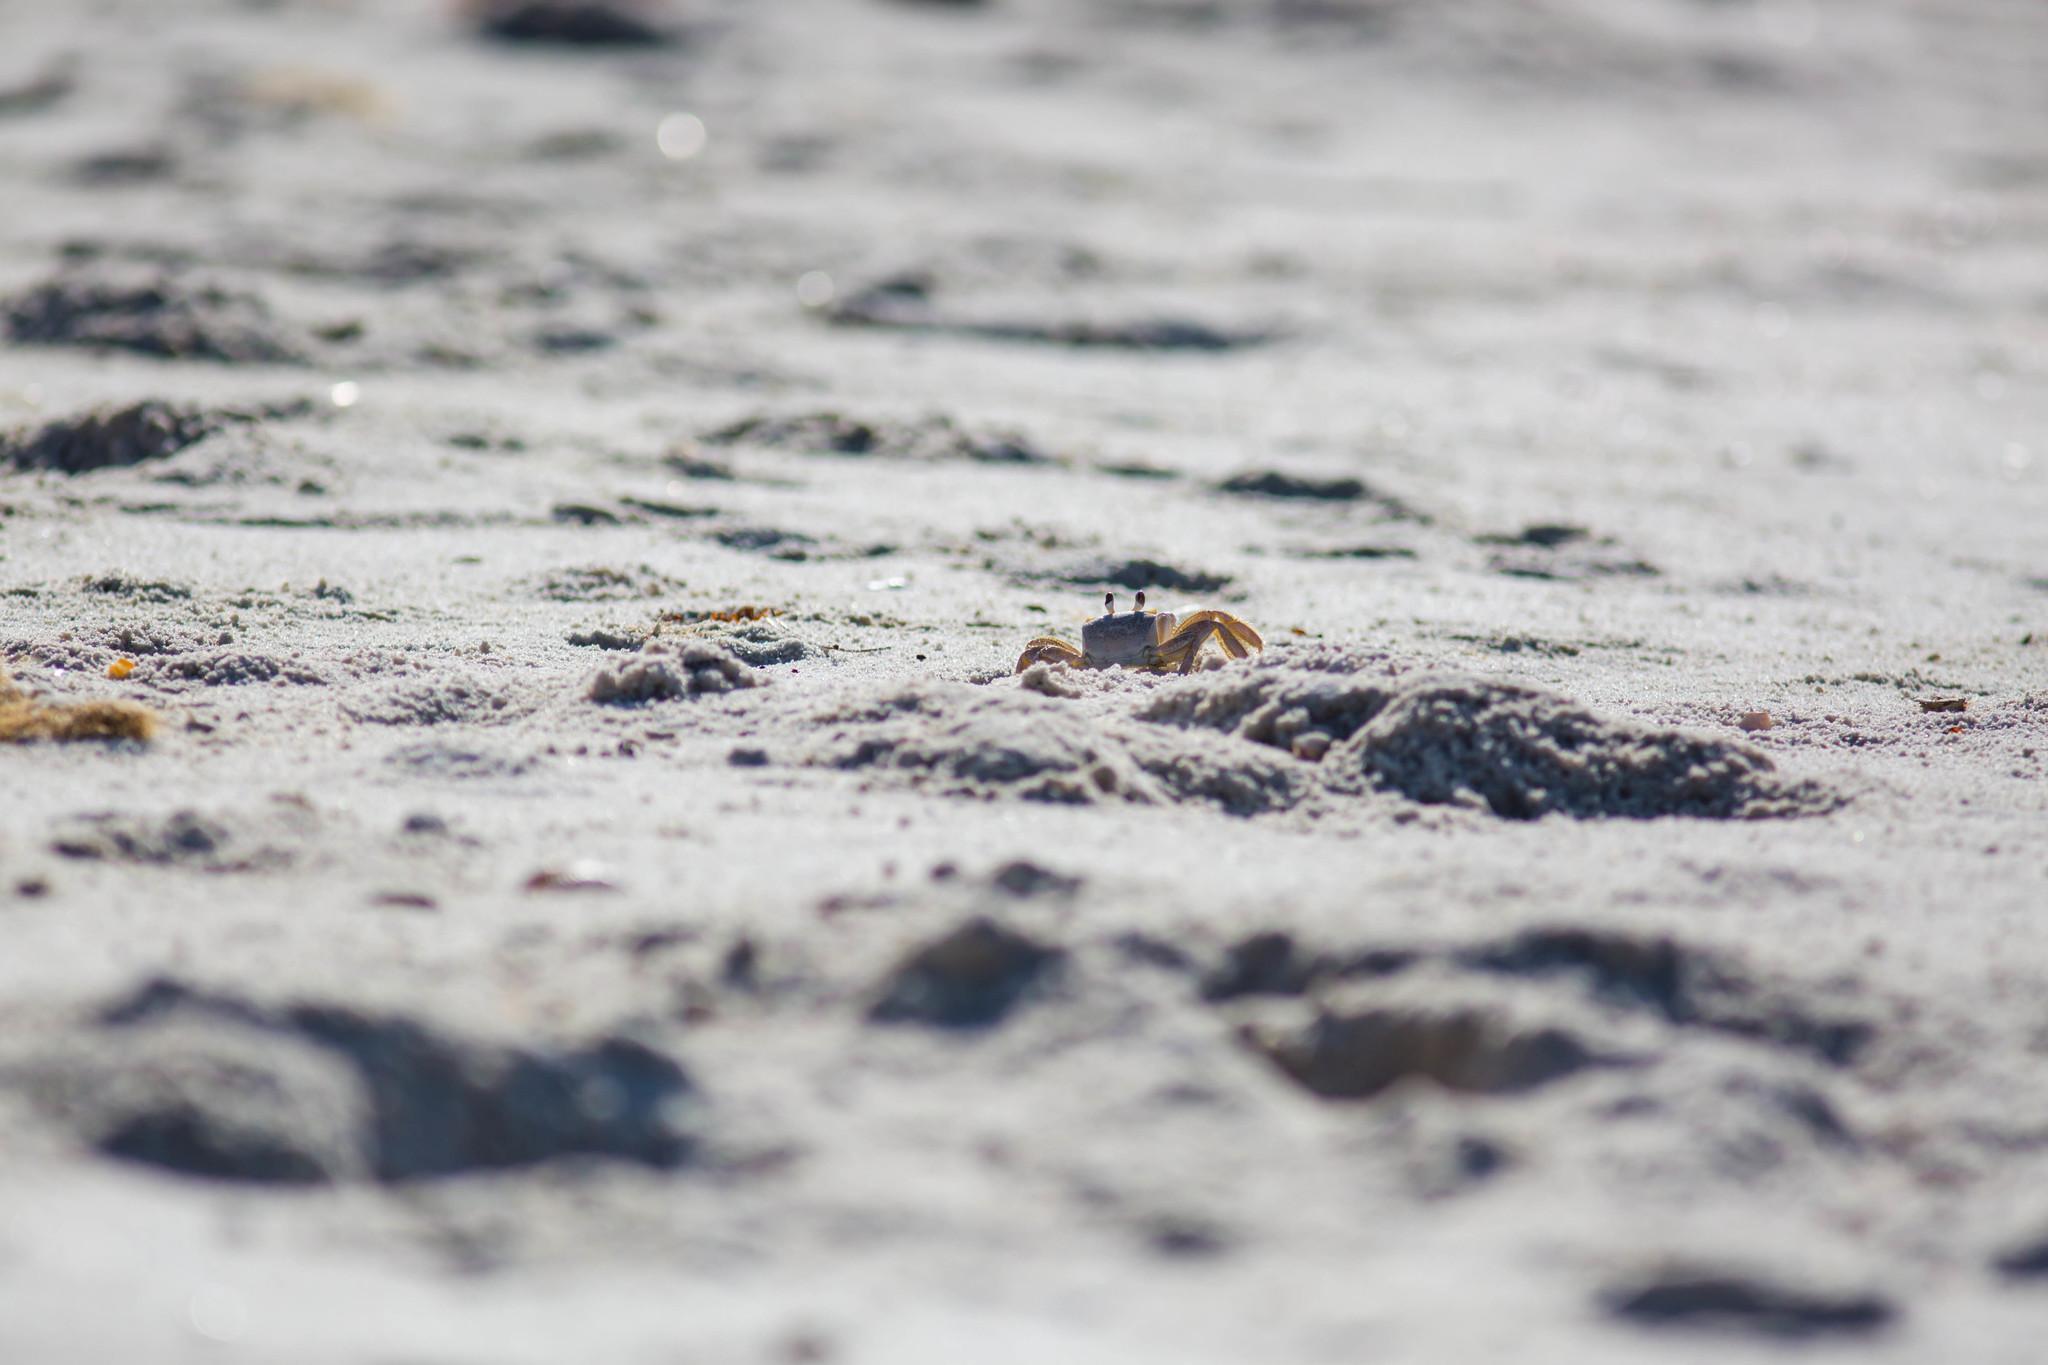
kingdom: Animalia
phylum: Arthropoda
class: Malacostraca
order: Decapoda
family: Ocypodidae
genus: Ocypode
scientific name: Ocypode quadrata
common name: Ghost crab
